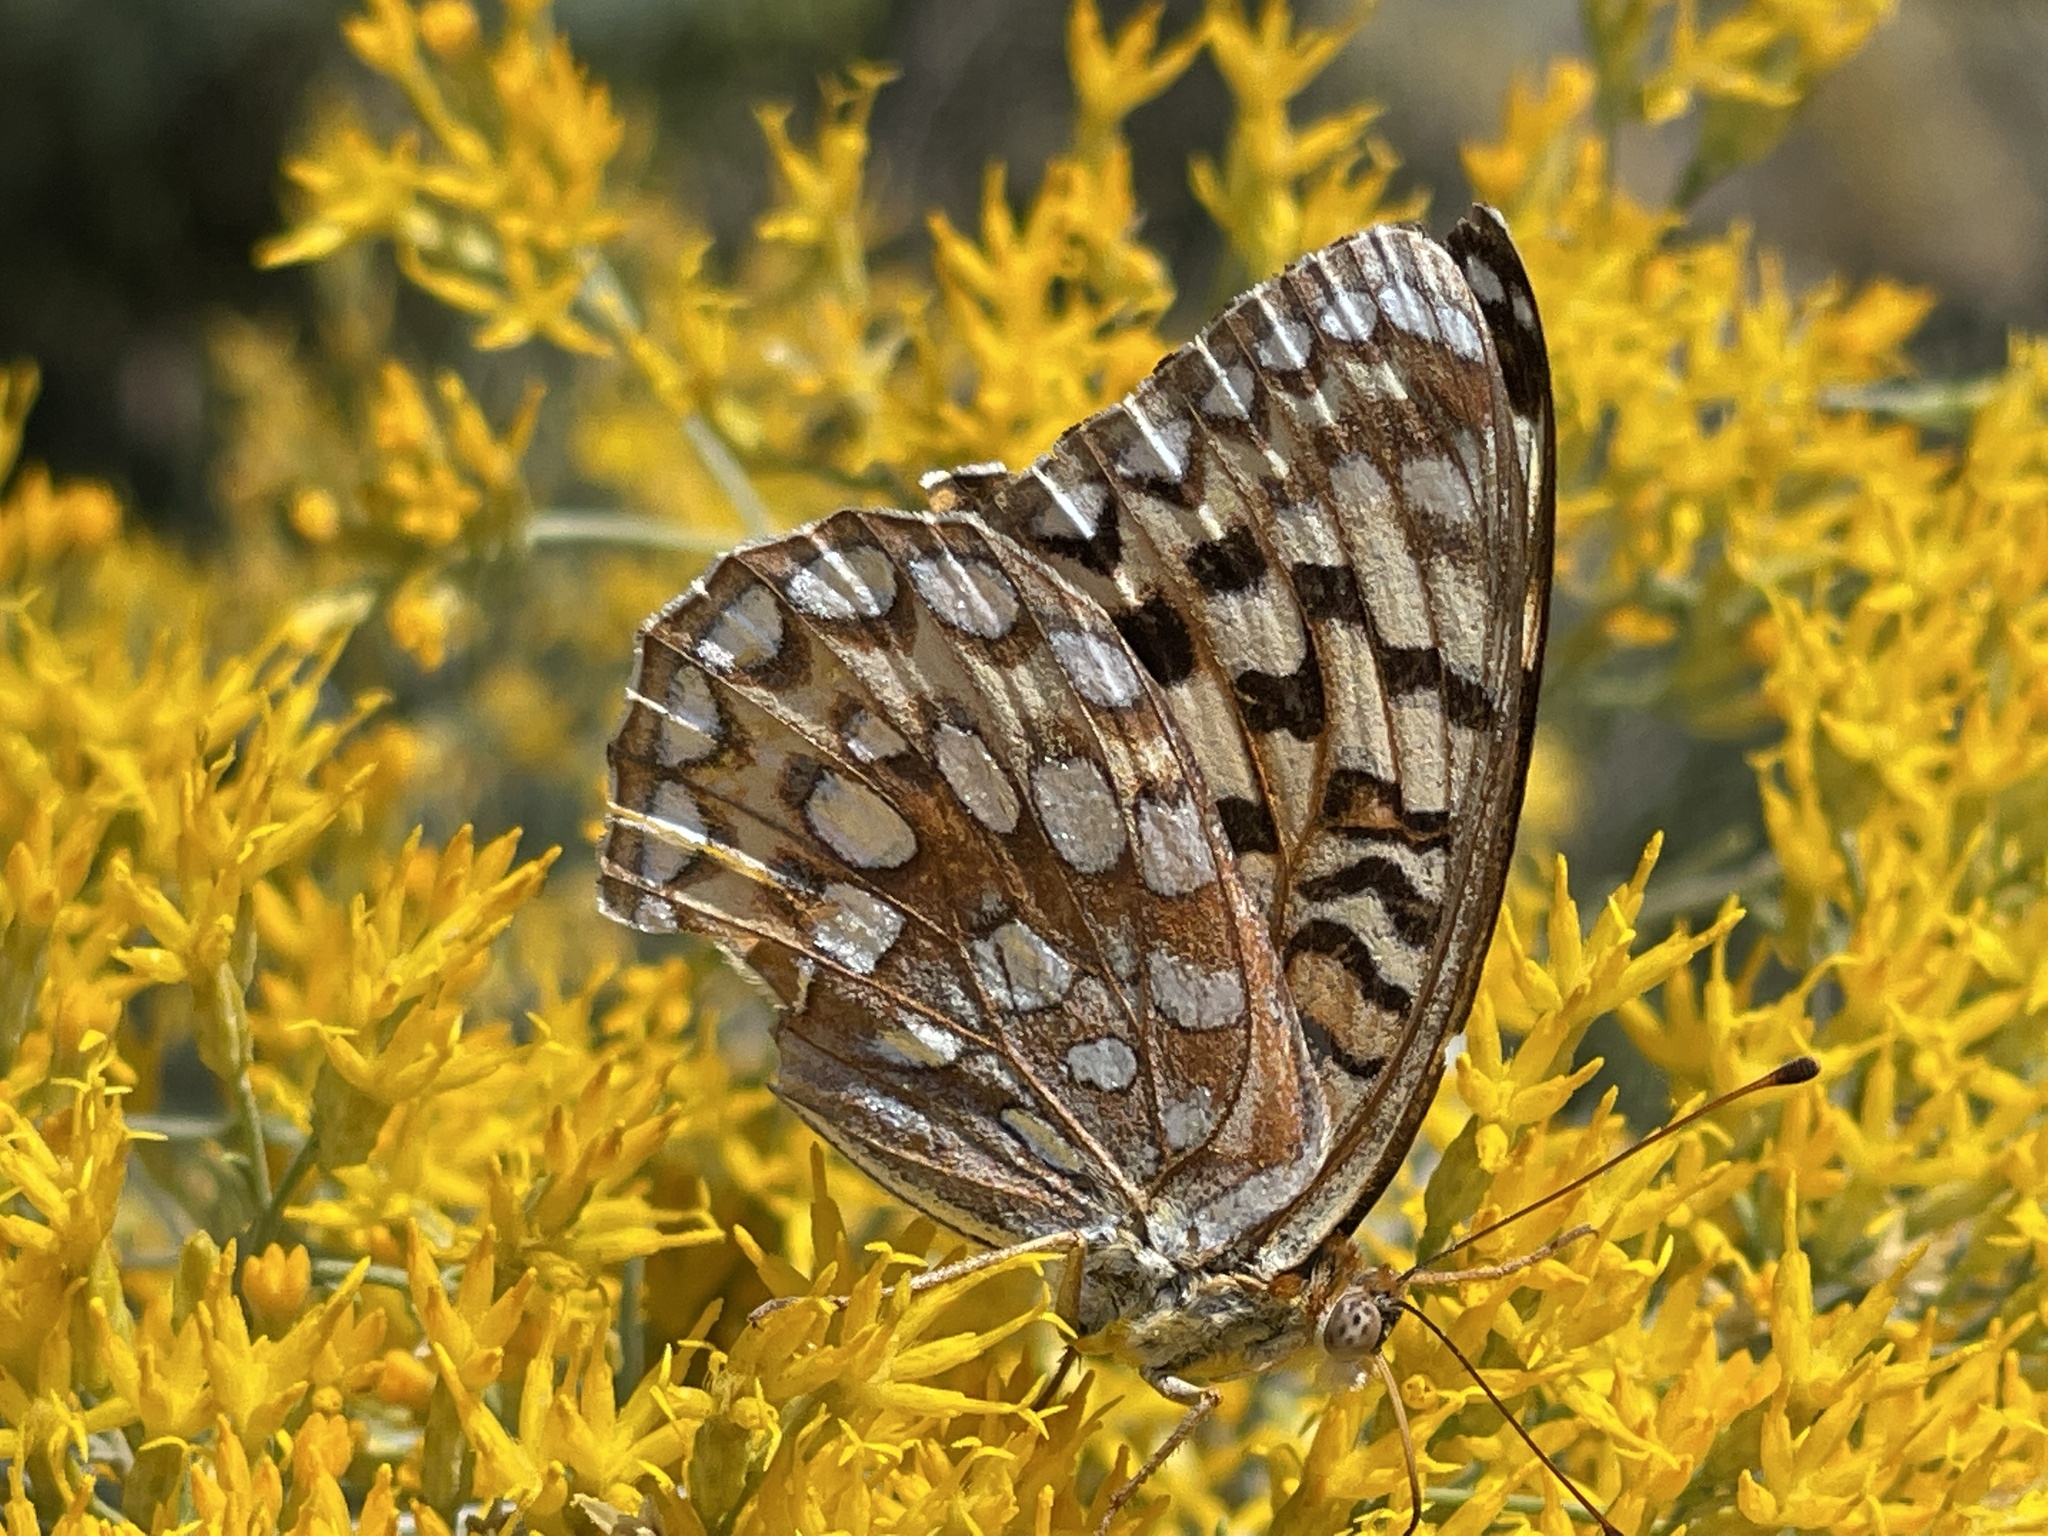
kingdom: Animalia
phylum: Arthropoda
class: Insecta
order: Lepidoptera
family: Nymphalidae
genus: Argynnis
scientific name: Argynnis coronis
